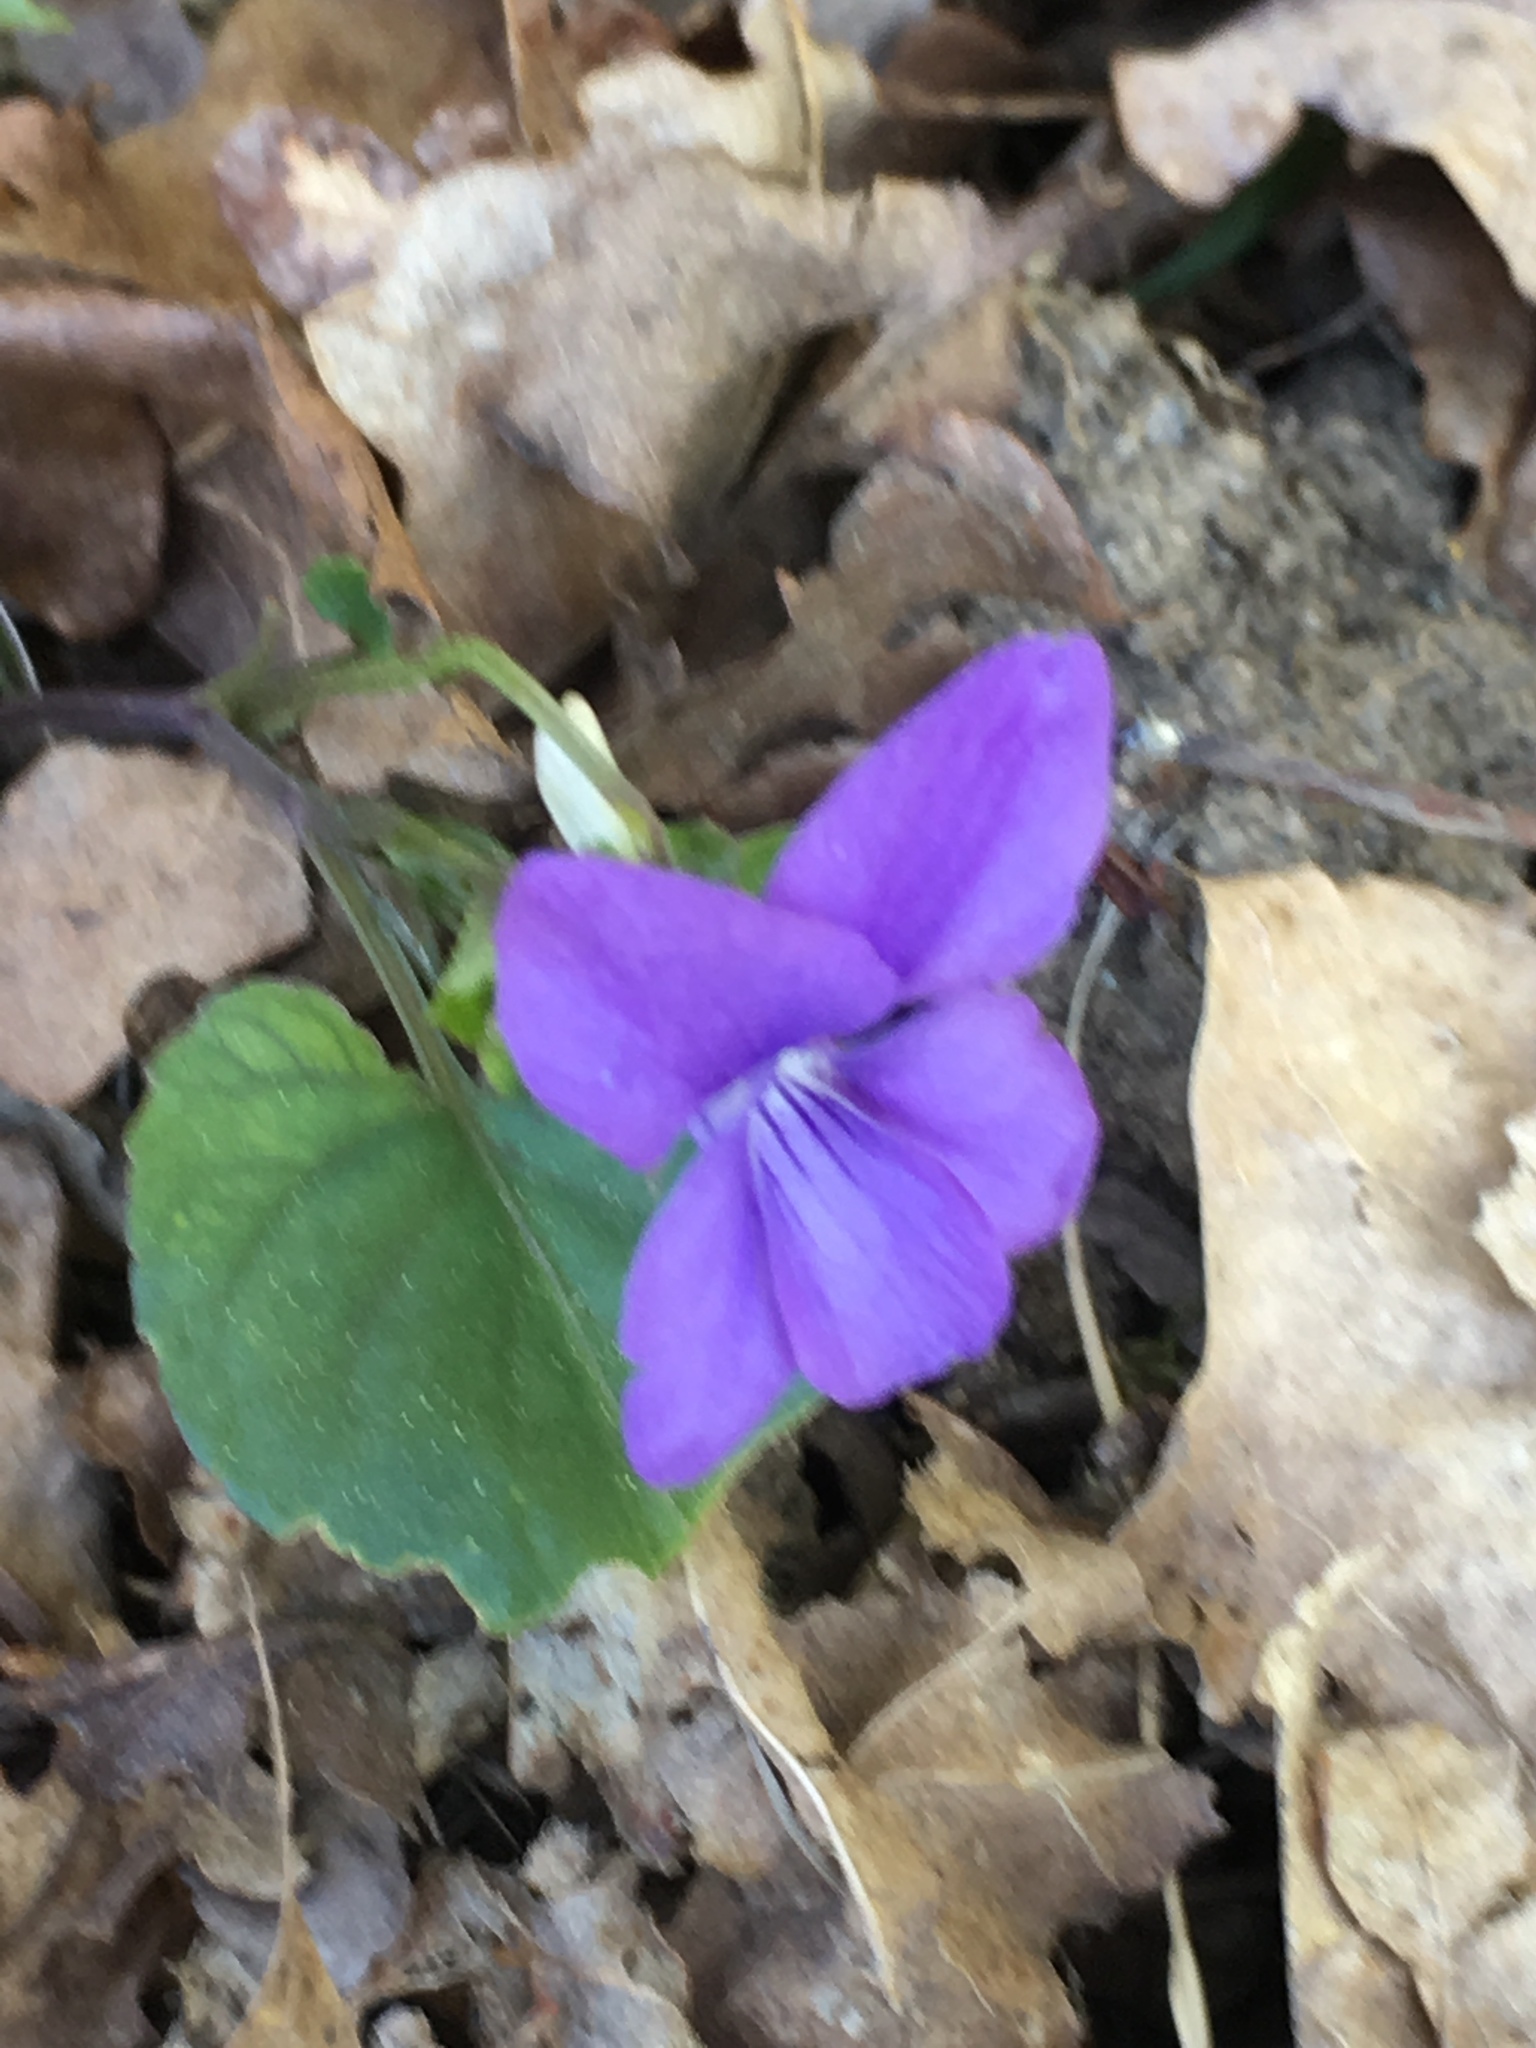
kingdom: Plantae
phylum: Tracheophyta
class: Magnoliopsida
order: Malpighiales
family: Violaceae
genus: Viola
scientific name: Viola riviniana
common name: Common dog-violet
